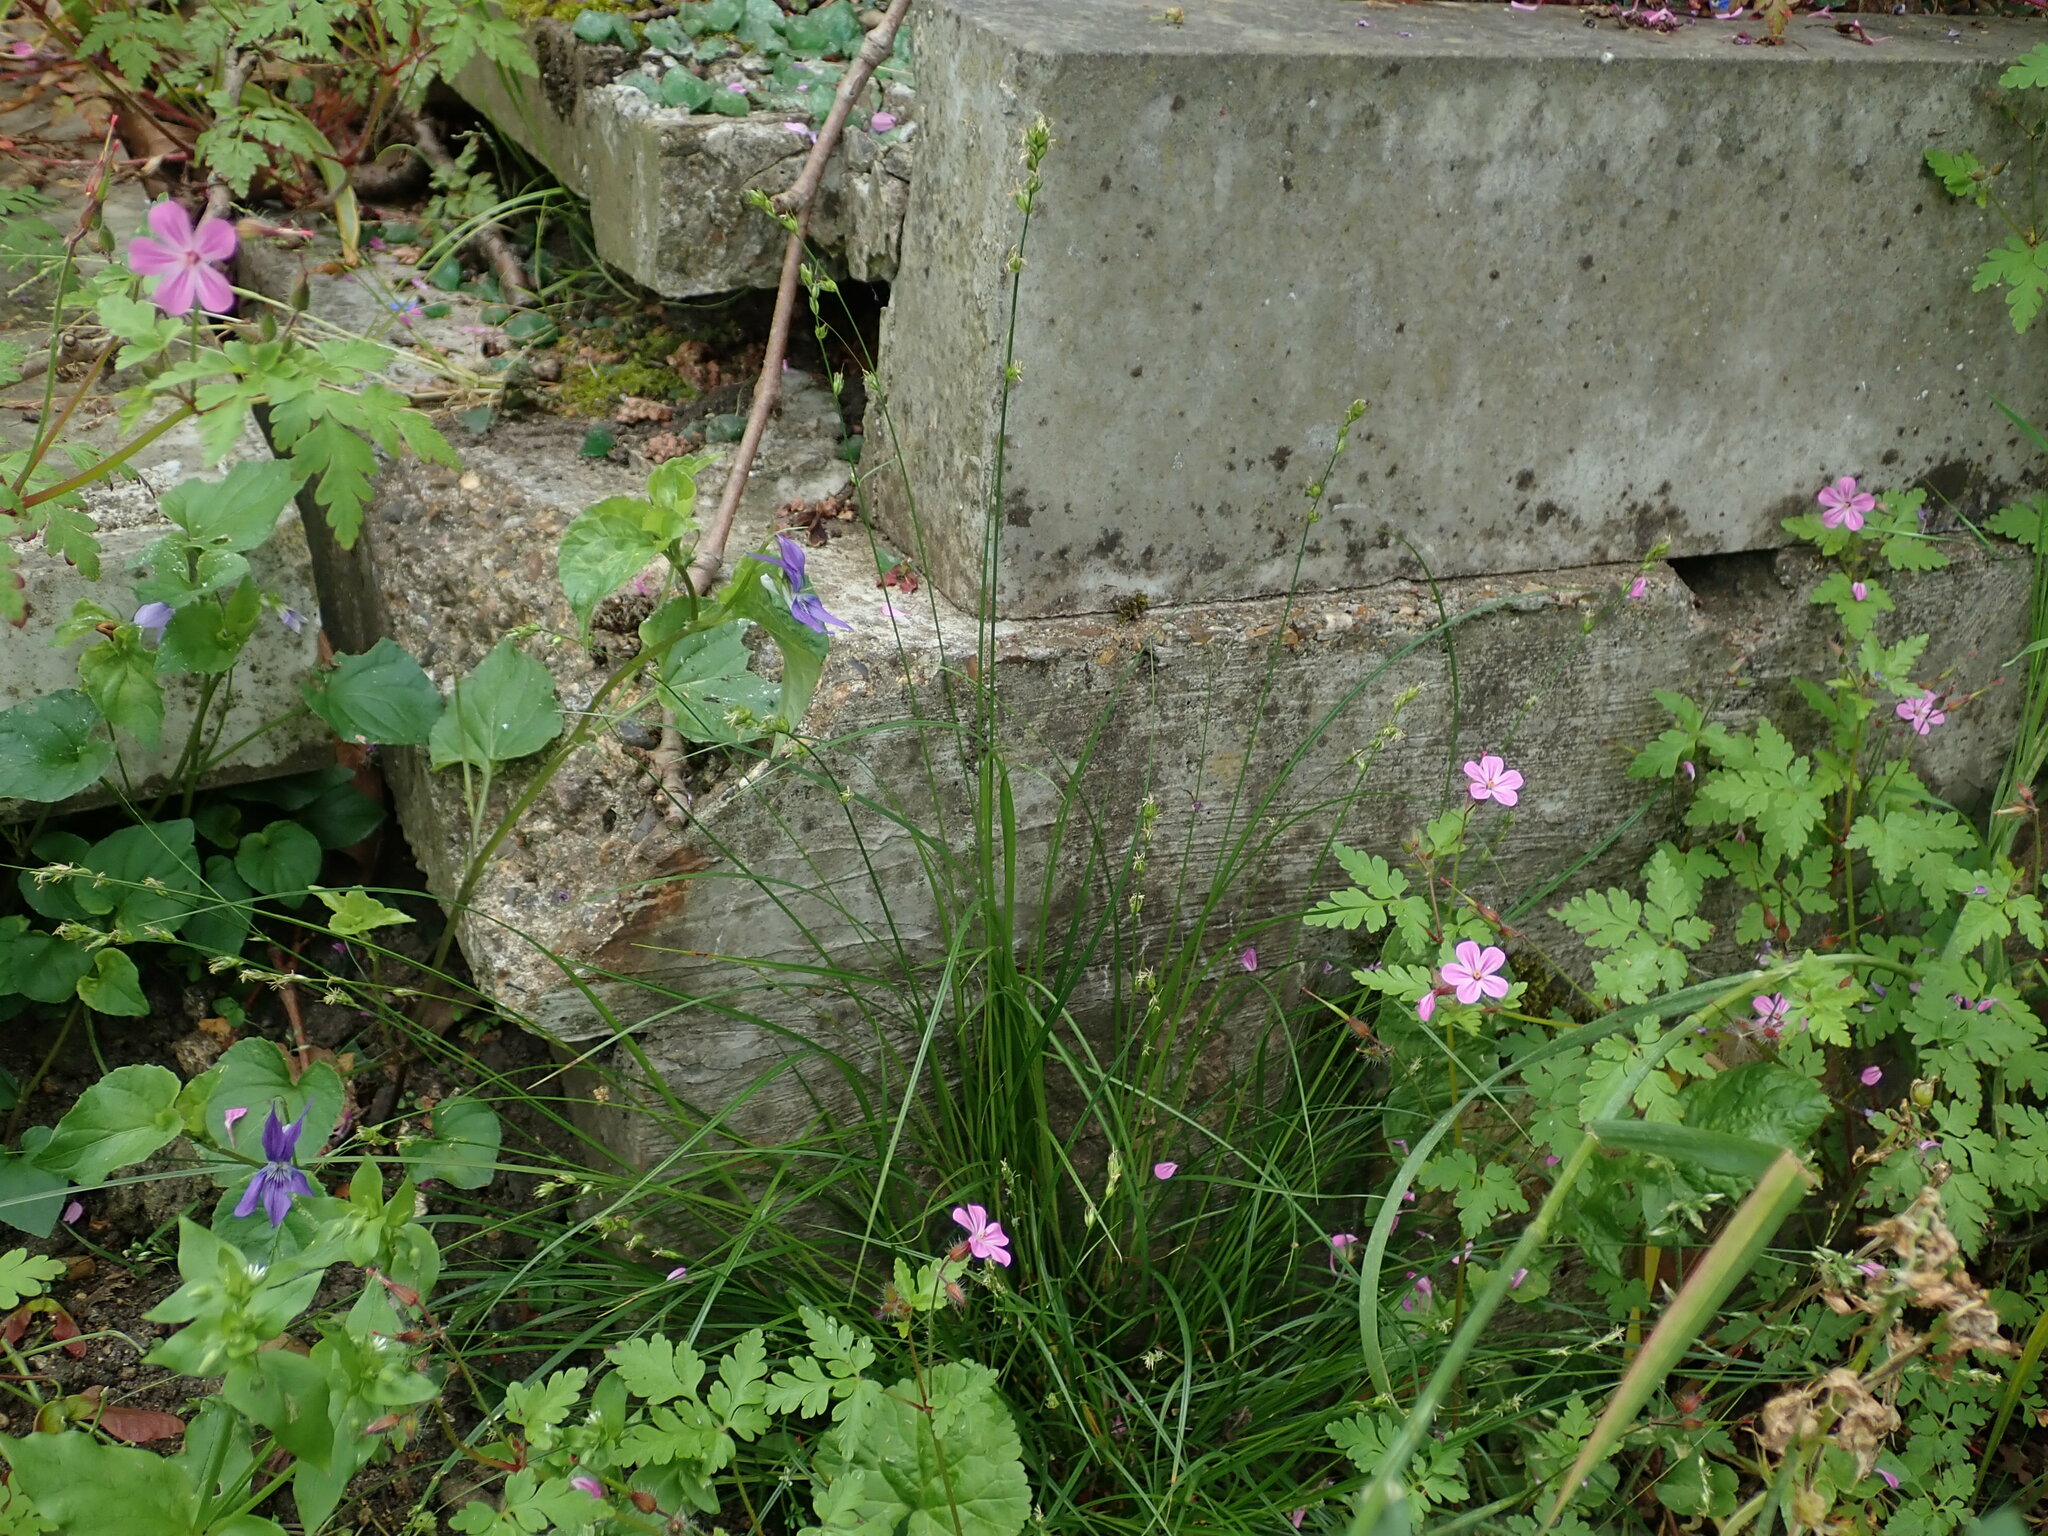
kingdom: Plantae
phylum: Tracheophyta
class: Liliopsida
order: Poales
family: Cyperaceae
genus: Carex
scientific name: Carex divulsa
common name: Grassland sedge
